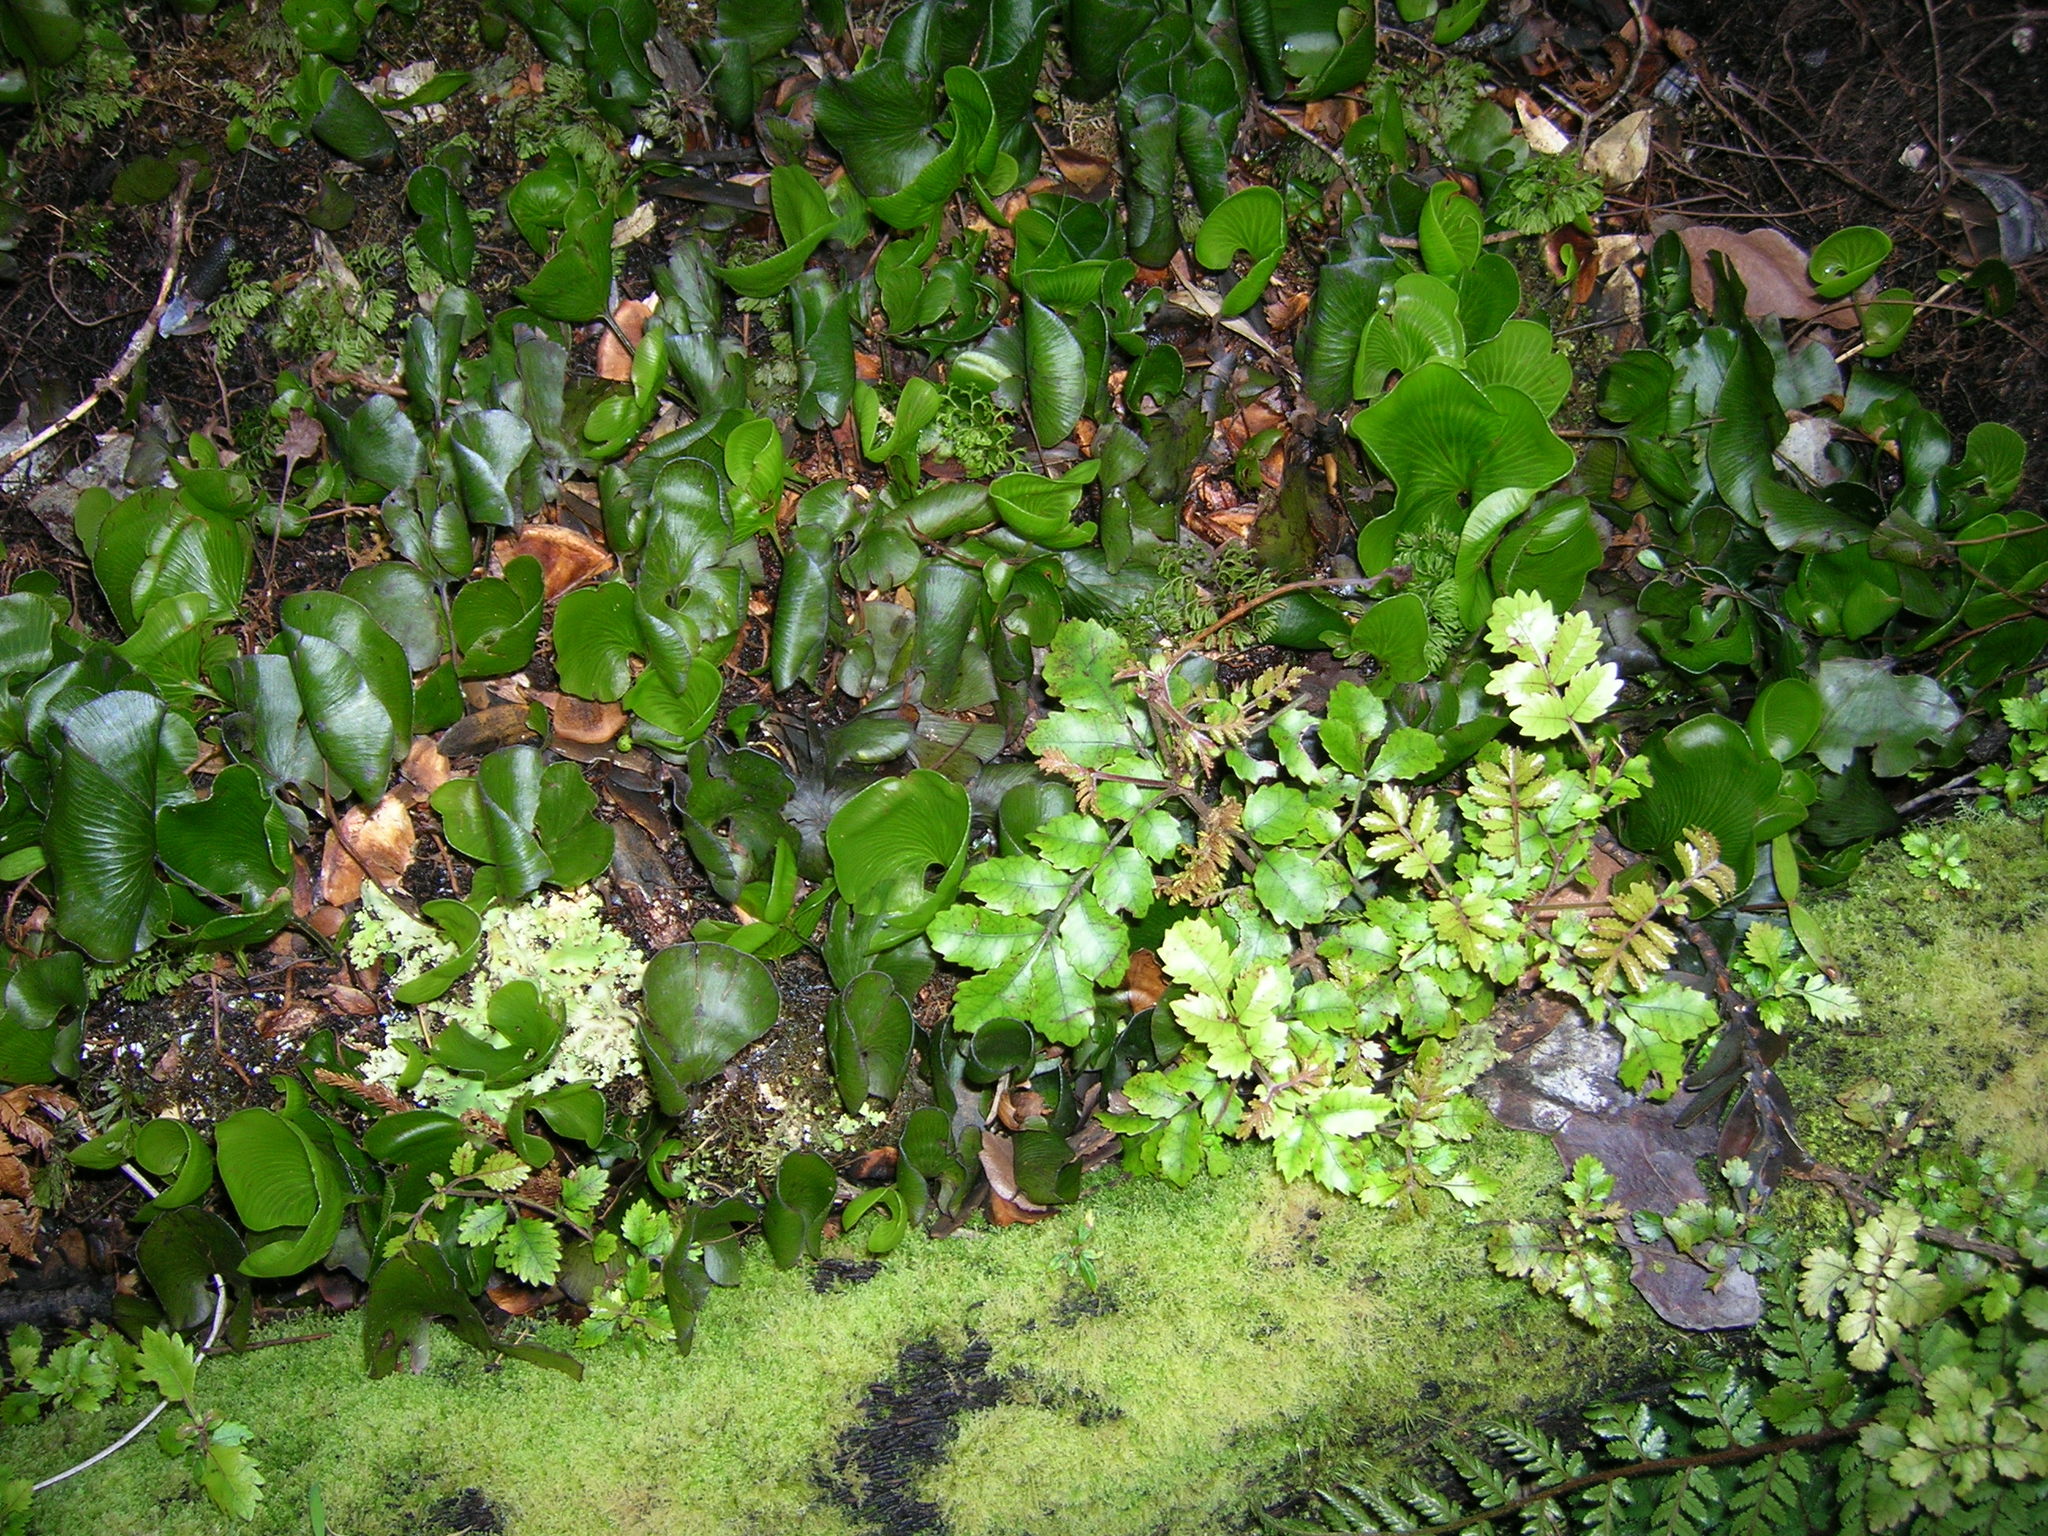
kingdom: Plantae
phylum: Tracheophyta
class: Polypodiopsida
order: Hymenophyllales
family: Hymenophyllaceae
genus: Hymenophyllum
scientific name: Hymenophyllum nephrophyllum
